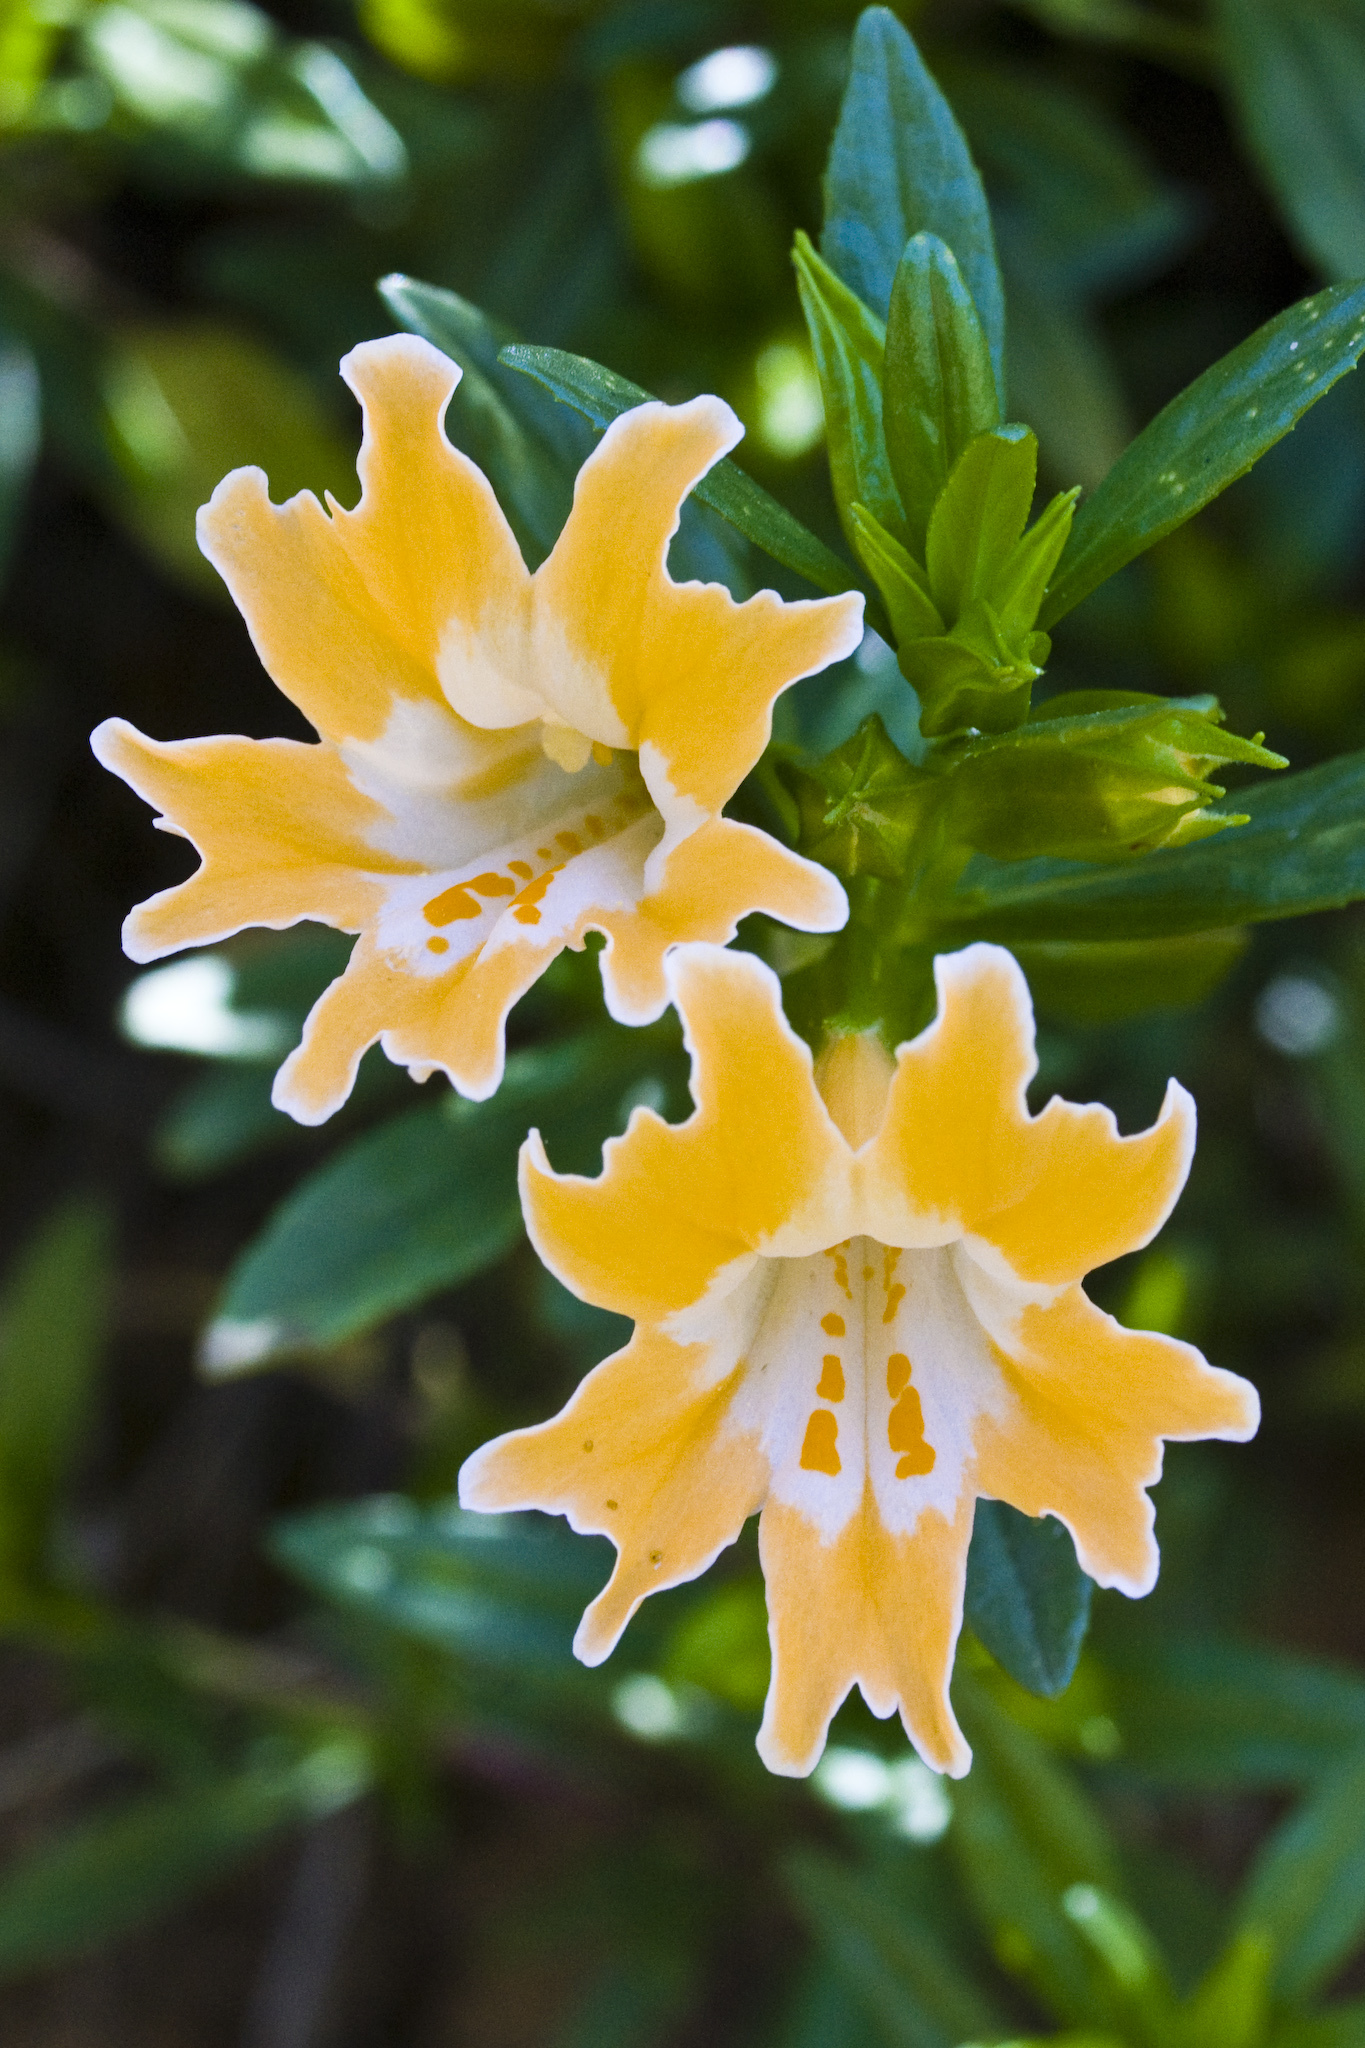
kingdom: Plantae
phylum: Tracheophyta
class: Magnoliopsida
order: Lamiales
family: Phrymaceae
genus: Diplacus
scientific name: Diplacus linearis
